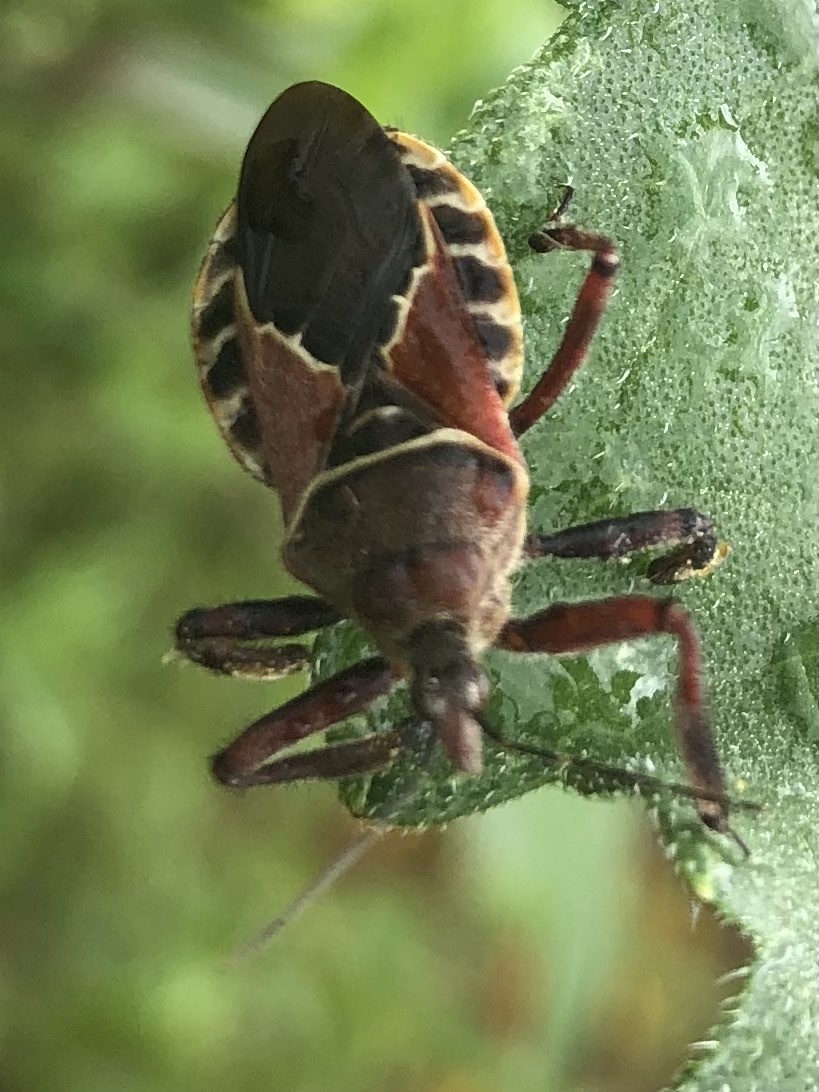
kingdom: Animalia
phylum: Arthropoda
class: Insecta
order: Hemiptera
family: Reduviidae
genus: Apiomerus
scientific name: Apiomerus spissipes
